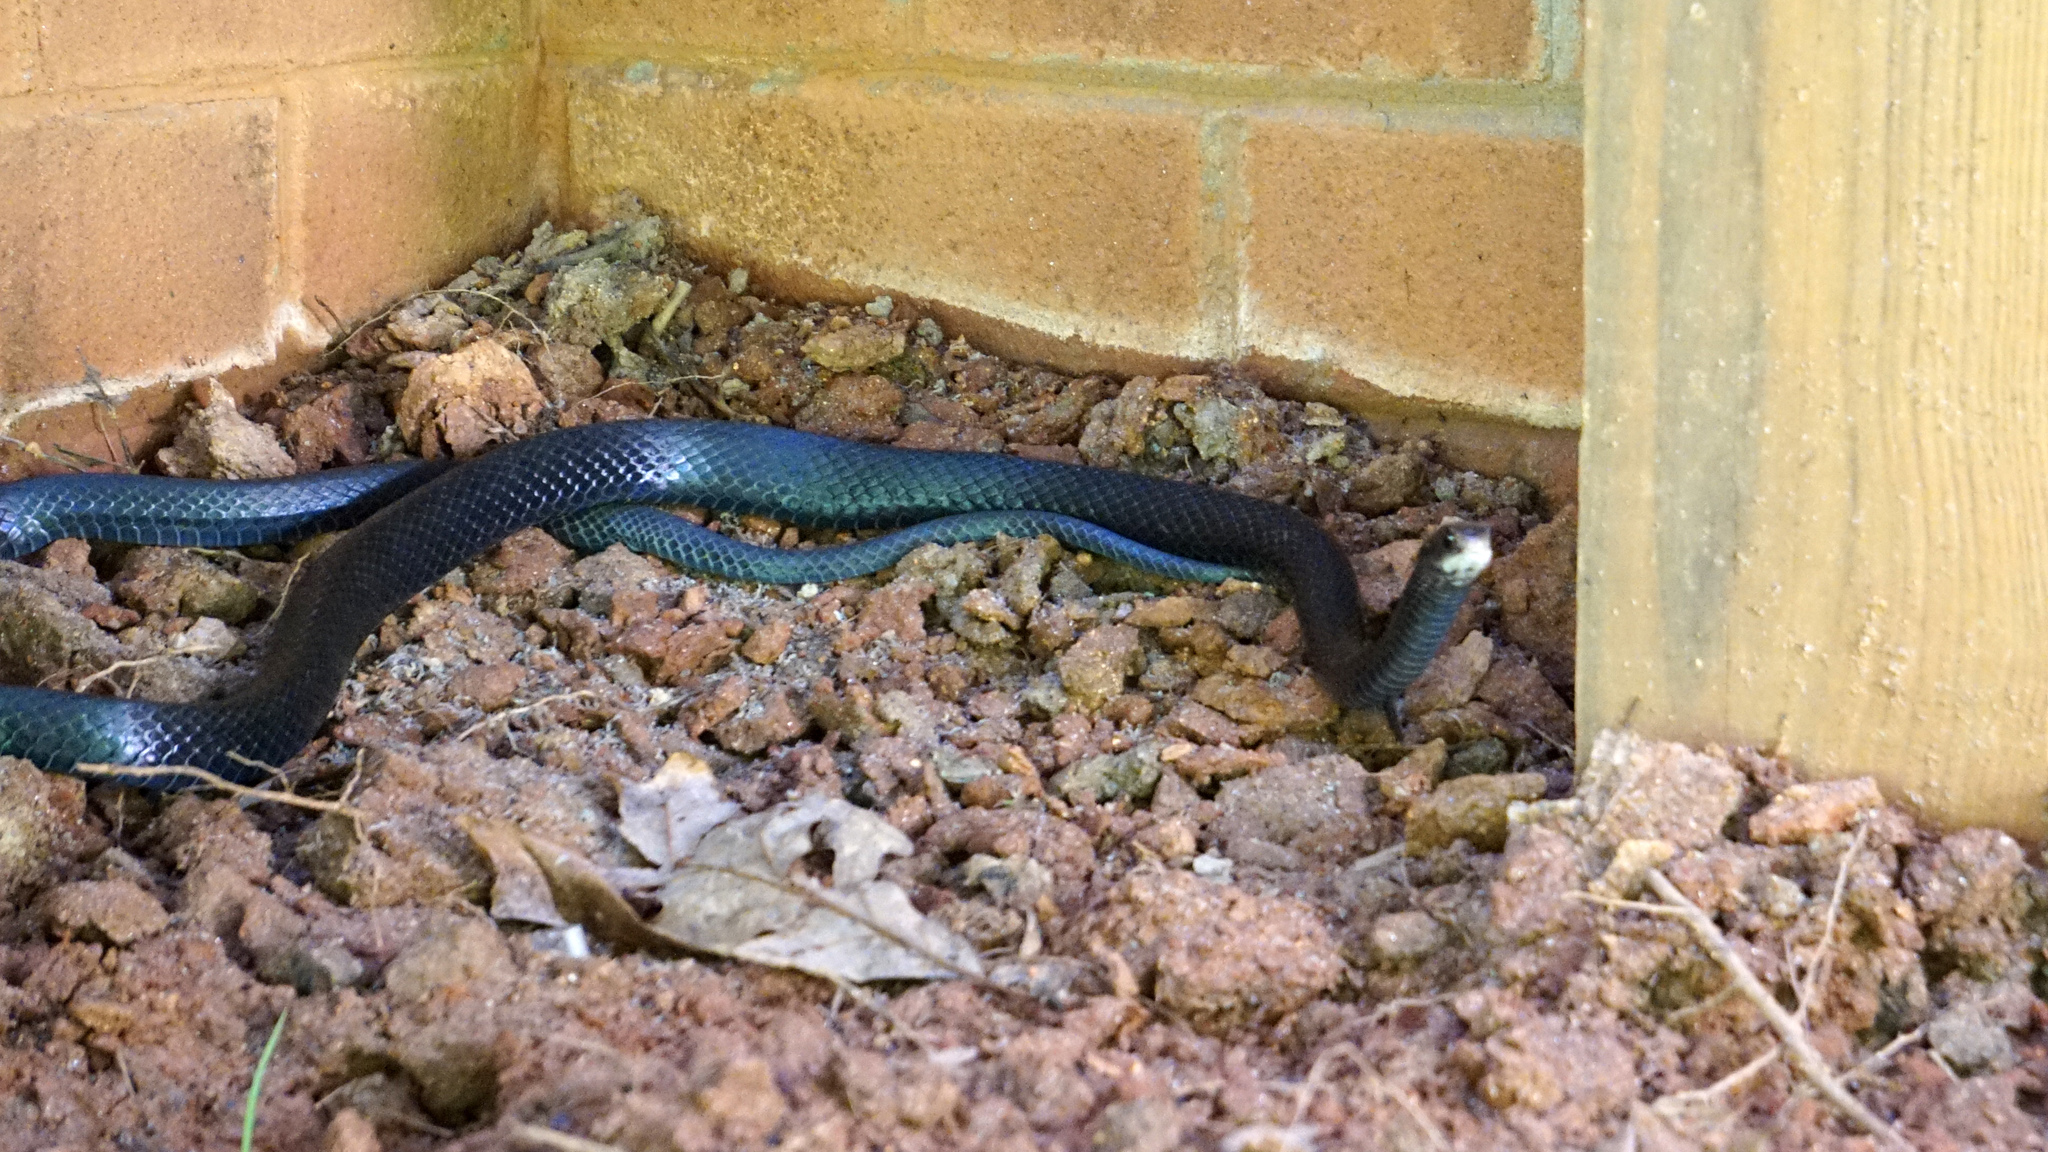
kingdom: Animalia
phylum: Chordata
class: Squamata
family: Colubridae
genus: Coluber
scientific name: Coluber constrictor
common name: Eastern racer
